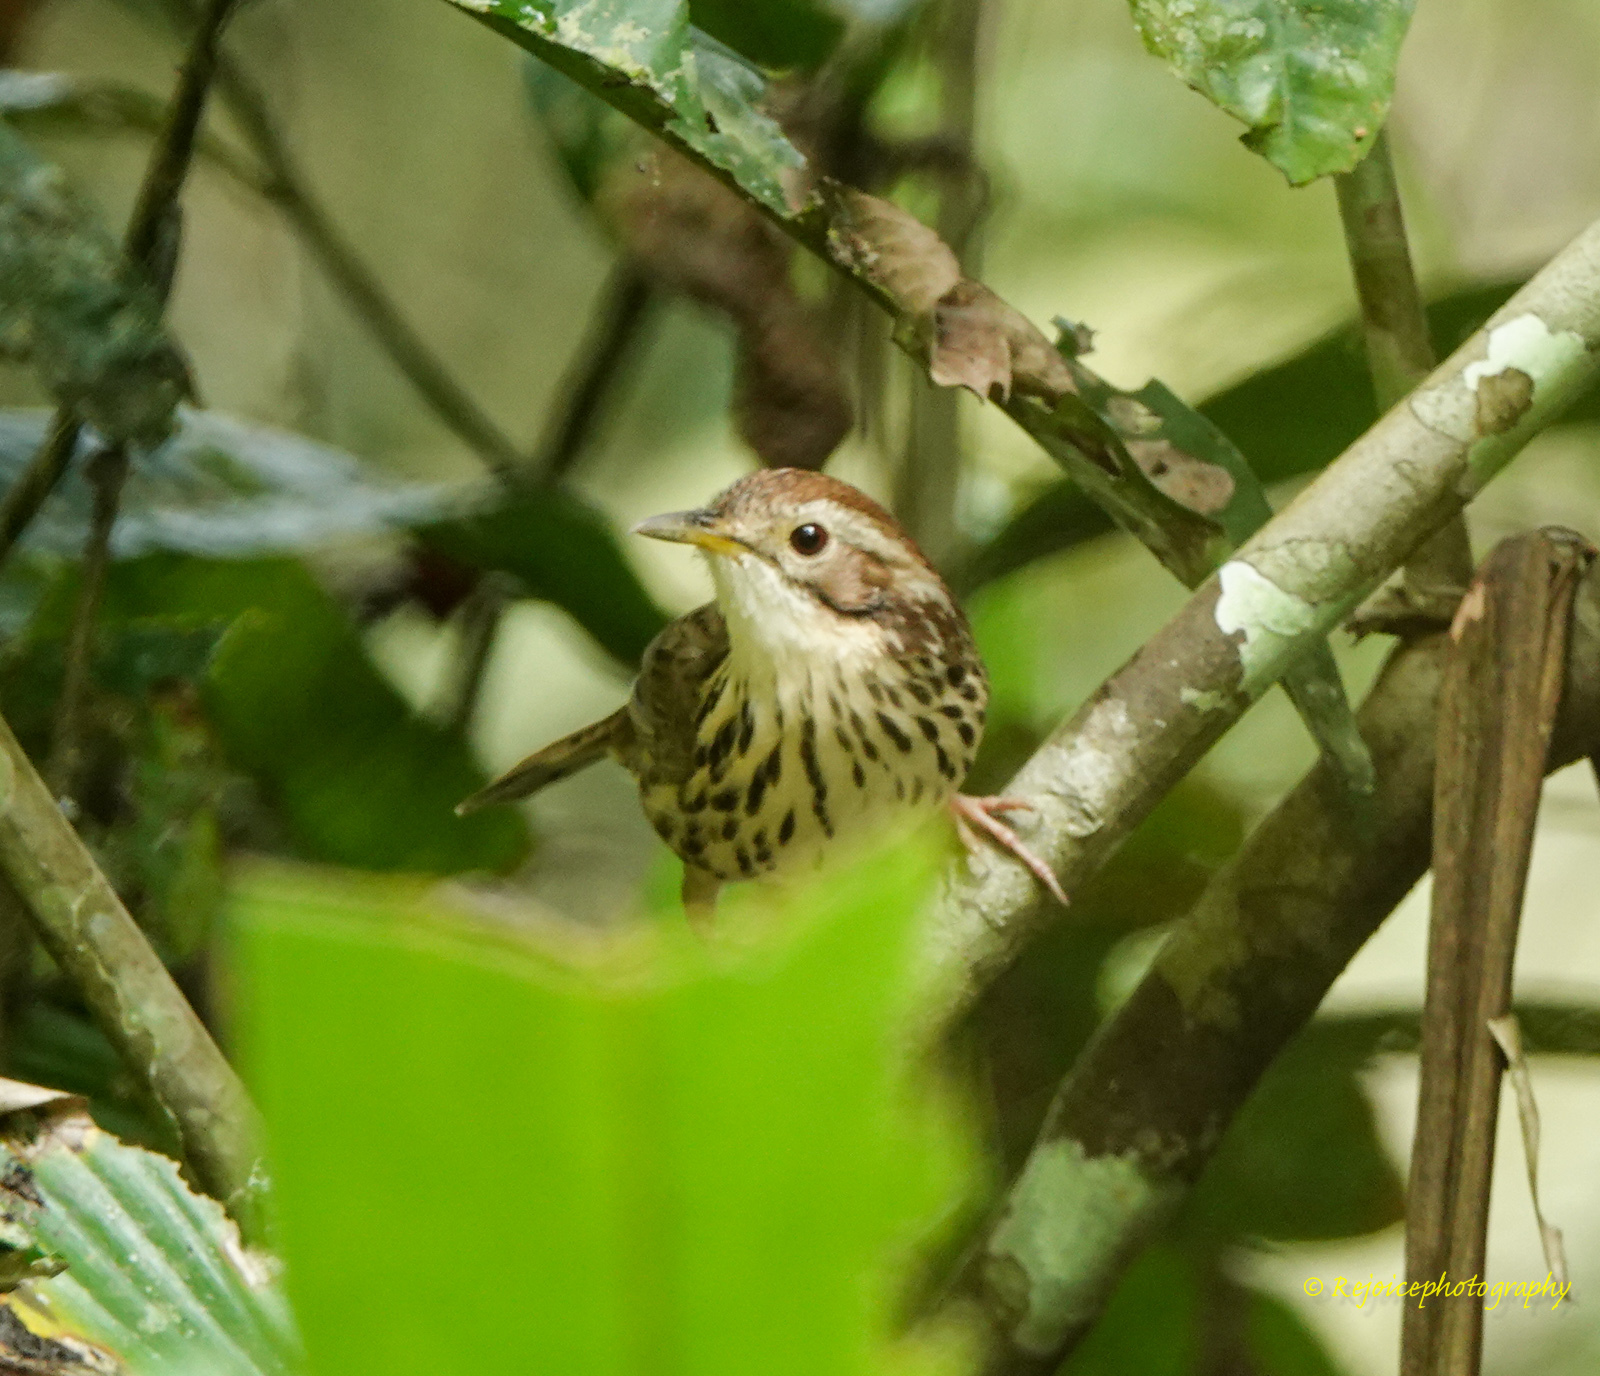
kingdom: Animalia
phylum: Chordata
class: Aves
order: Passeriformes
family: Pellorneidae
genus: Pellorneum
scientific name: Pellorneum ruficeps
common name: Puff-throated babbler
